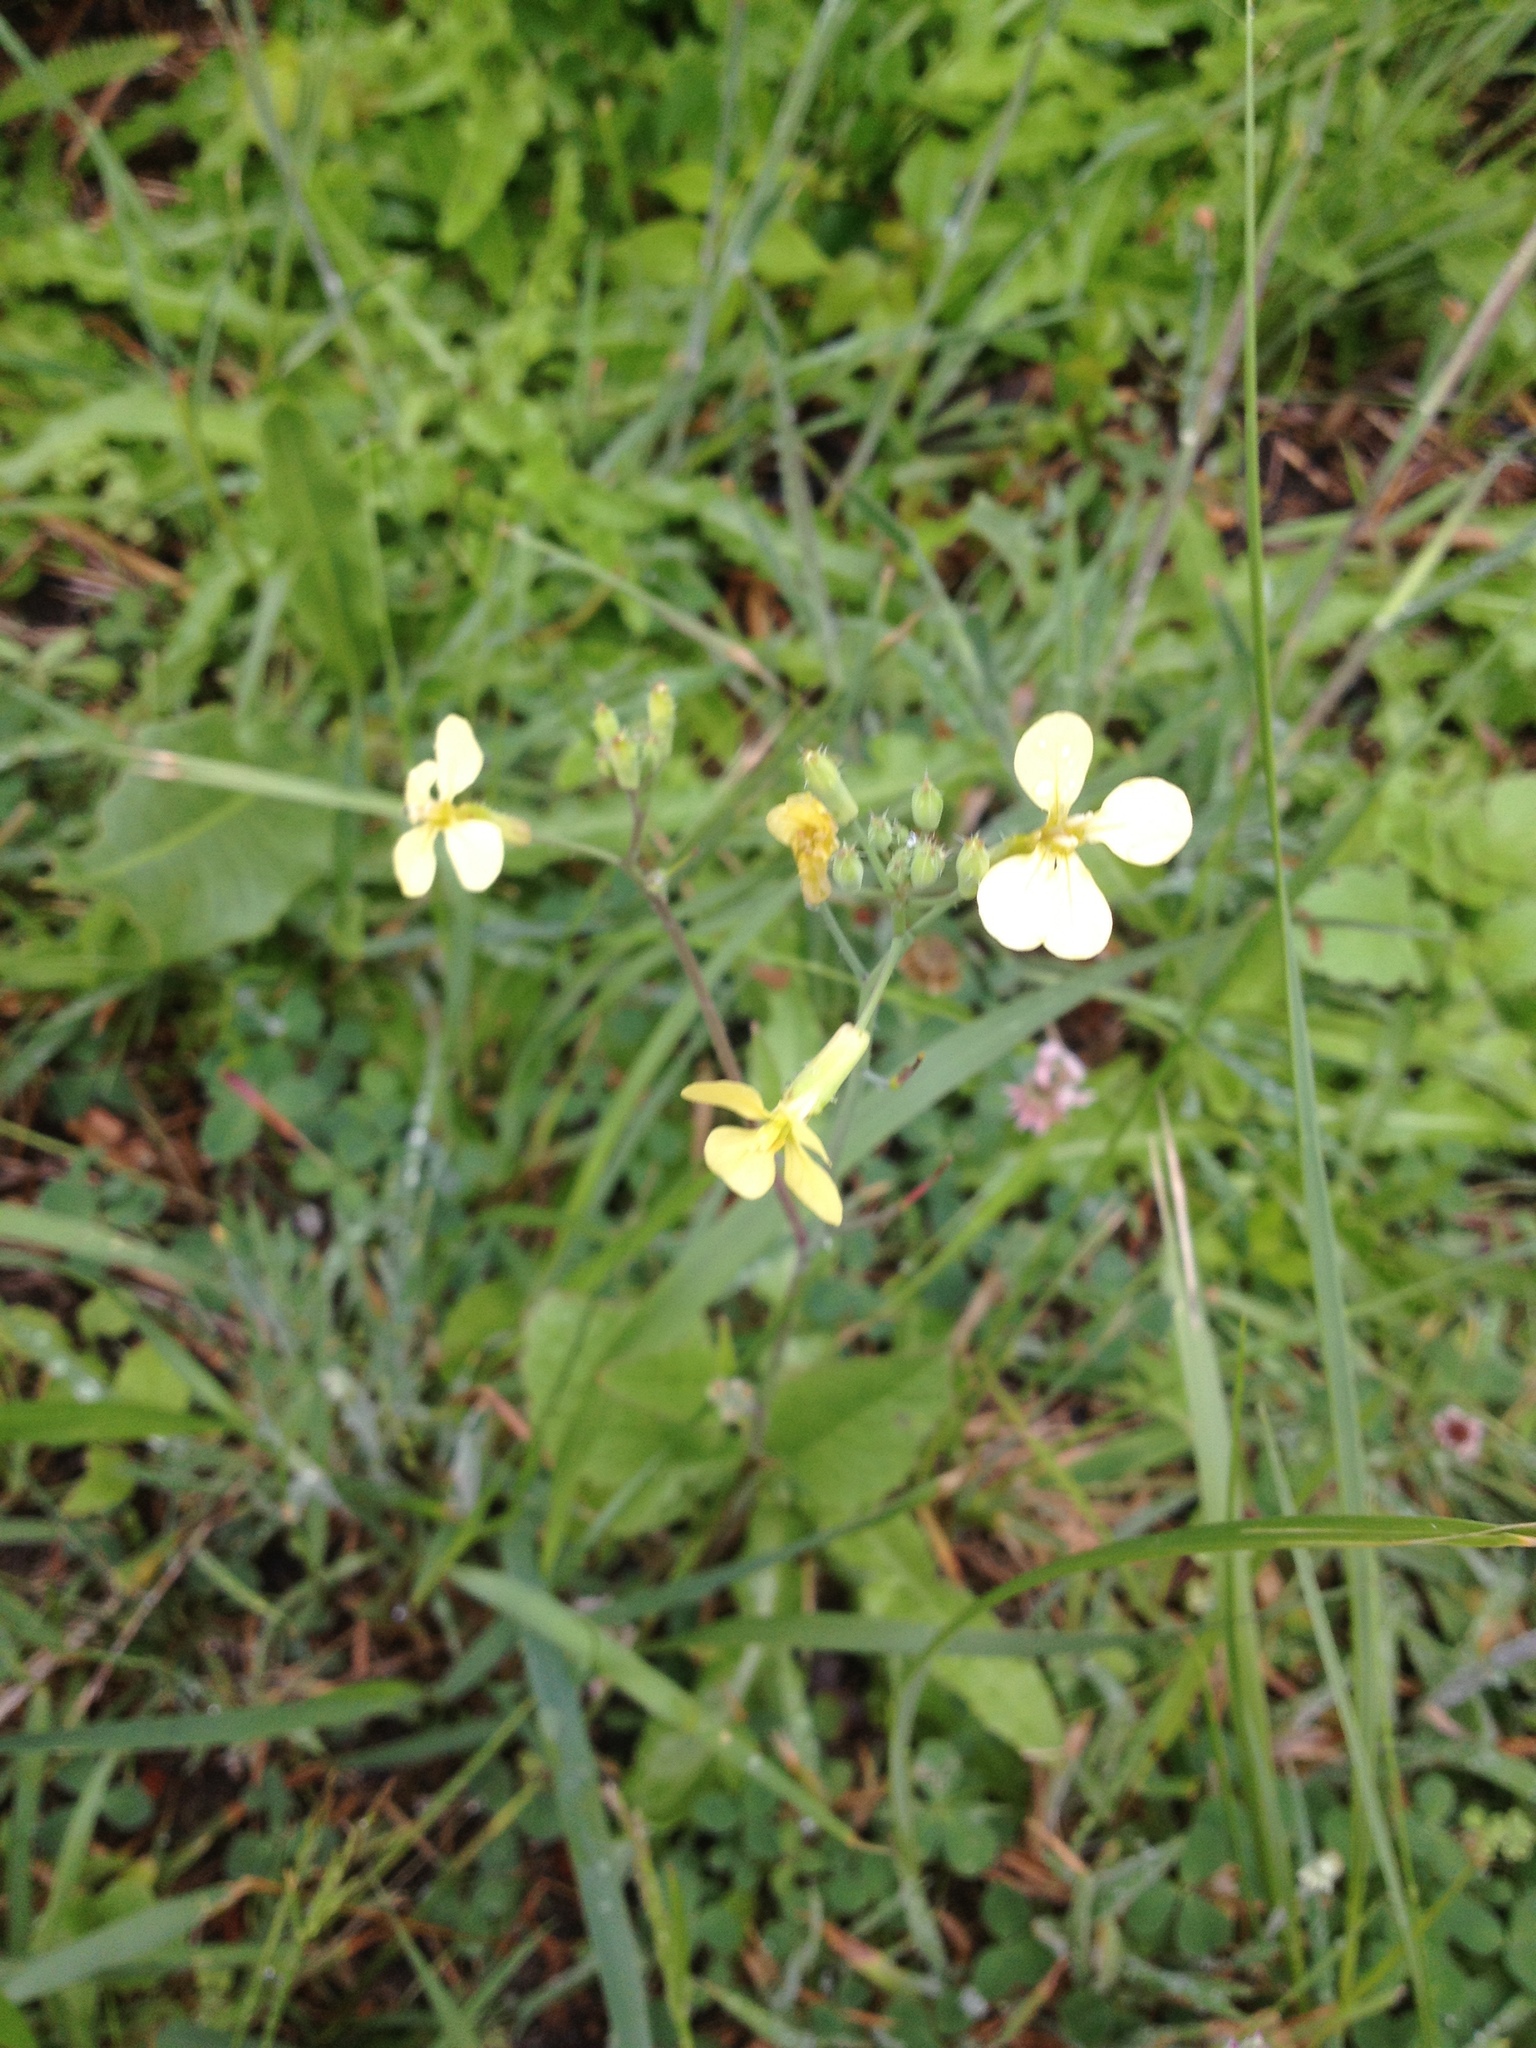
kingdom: Plantae
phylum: Tracheophyta
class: Magnoliopsida
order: Brassicales
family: Brassicaceae
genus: Raphanus
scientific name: Raphanus raphanistrum
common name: Wild radish
